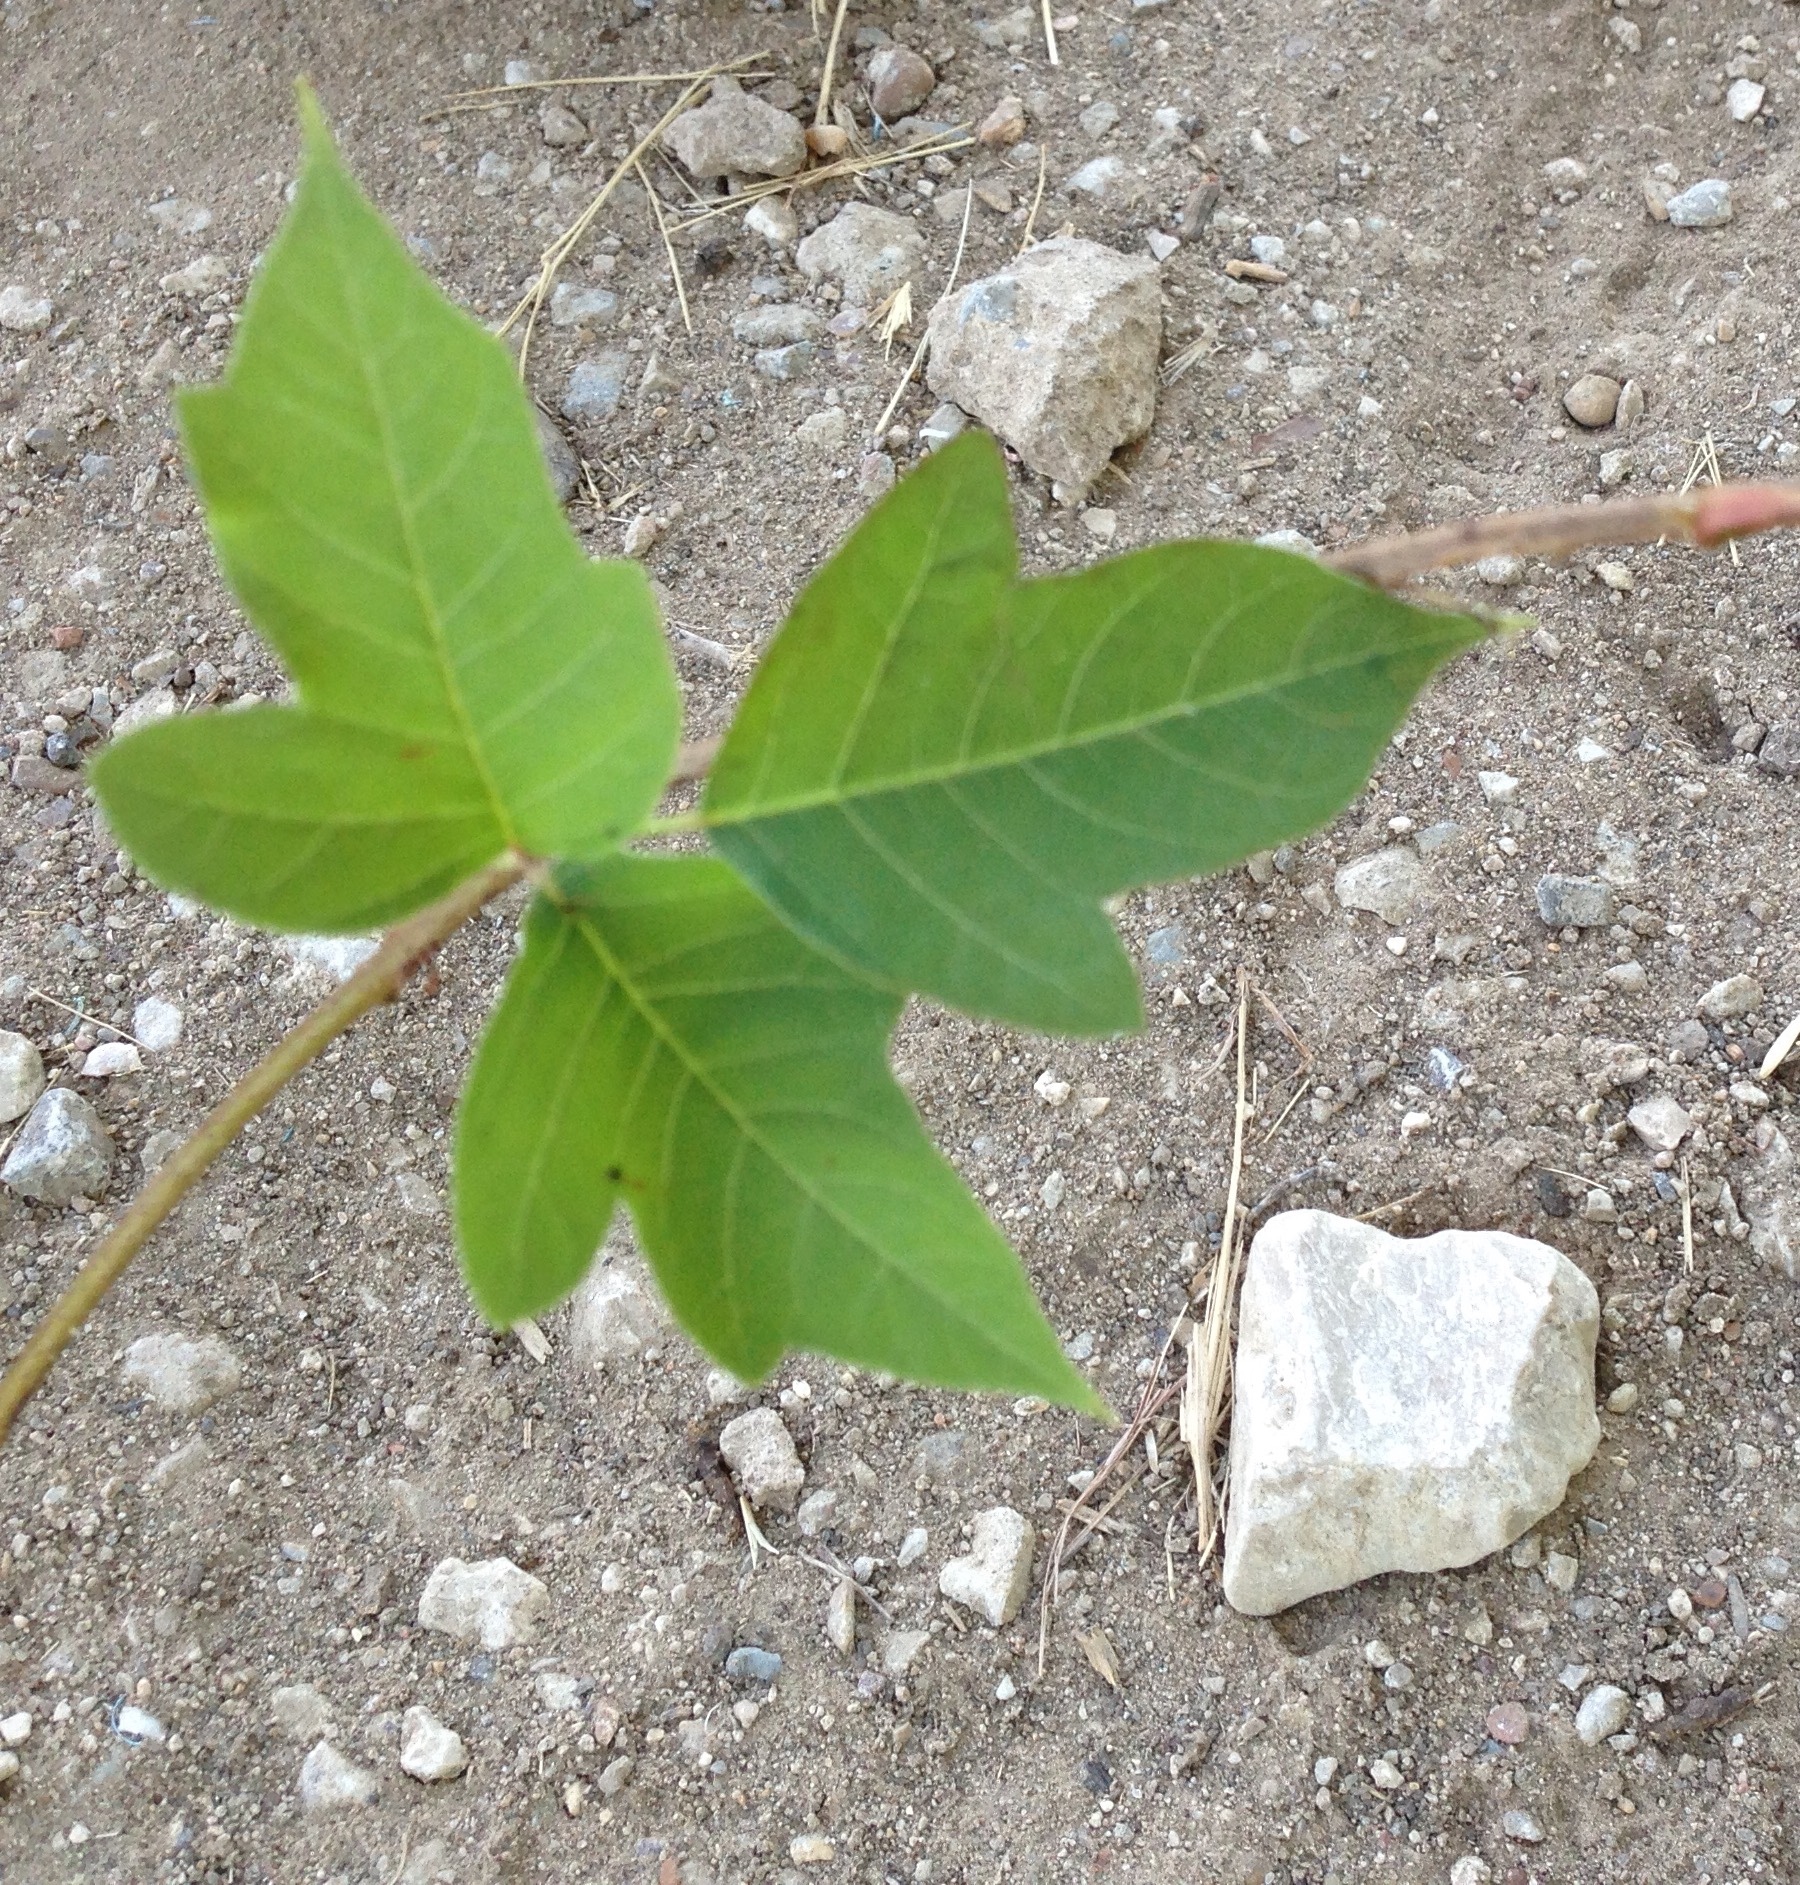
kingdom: Plantae
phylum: Tracheophyta
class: Magnoliopsida
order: Sapindales
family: Anacardiaceae
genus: Toxicodendron
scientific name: Toxicodendron radicans
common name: Poison ivy
